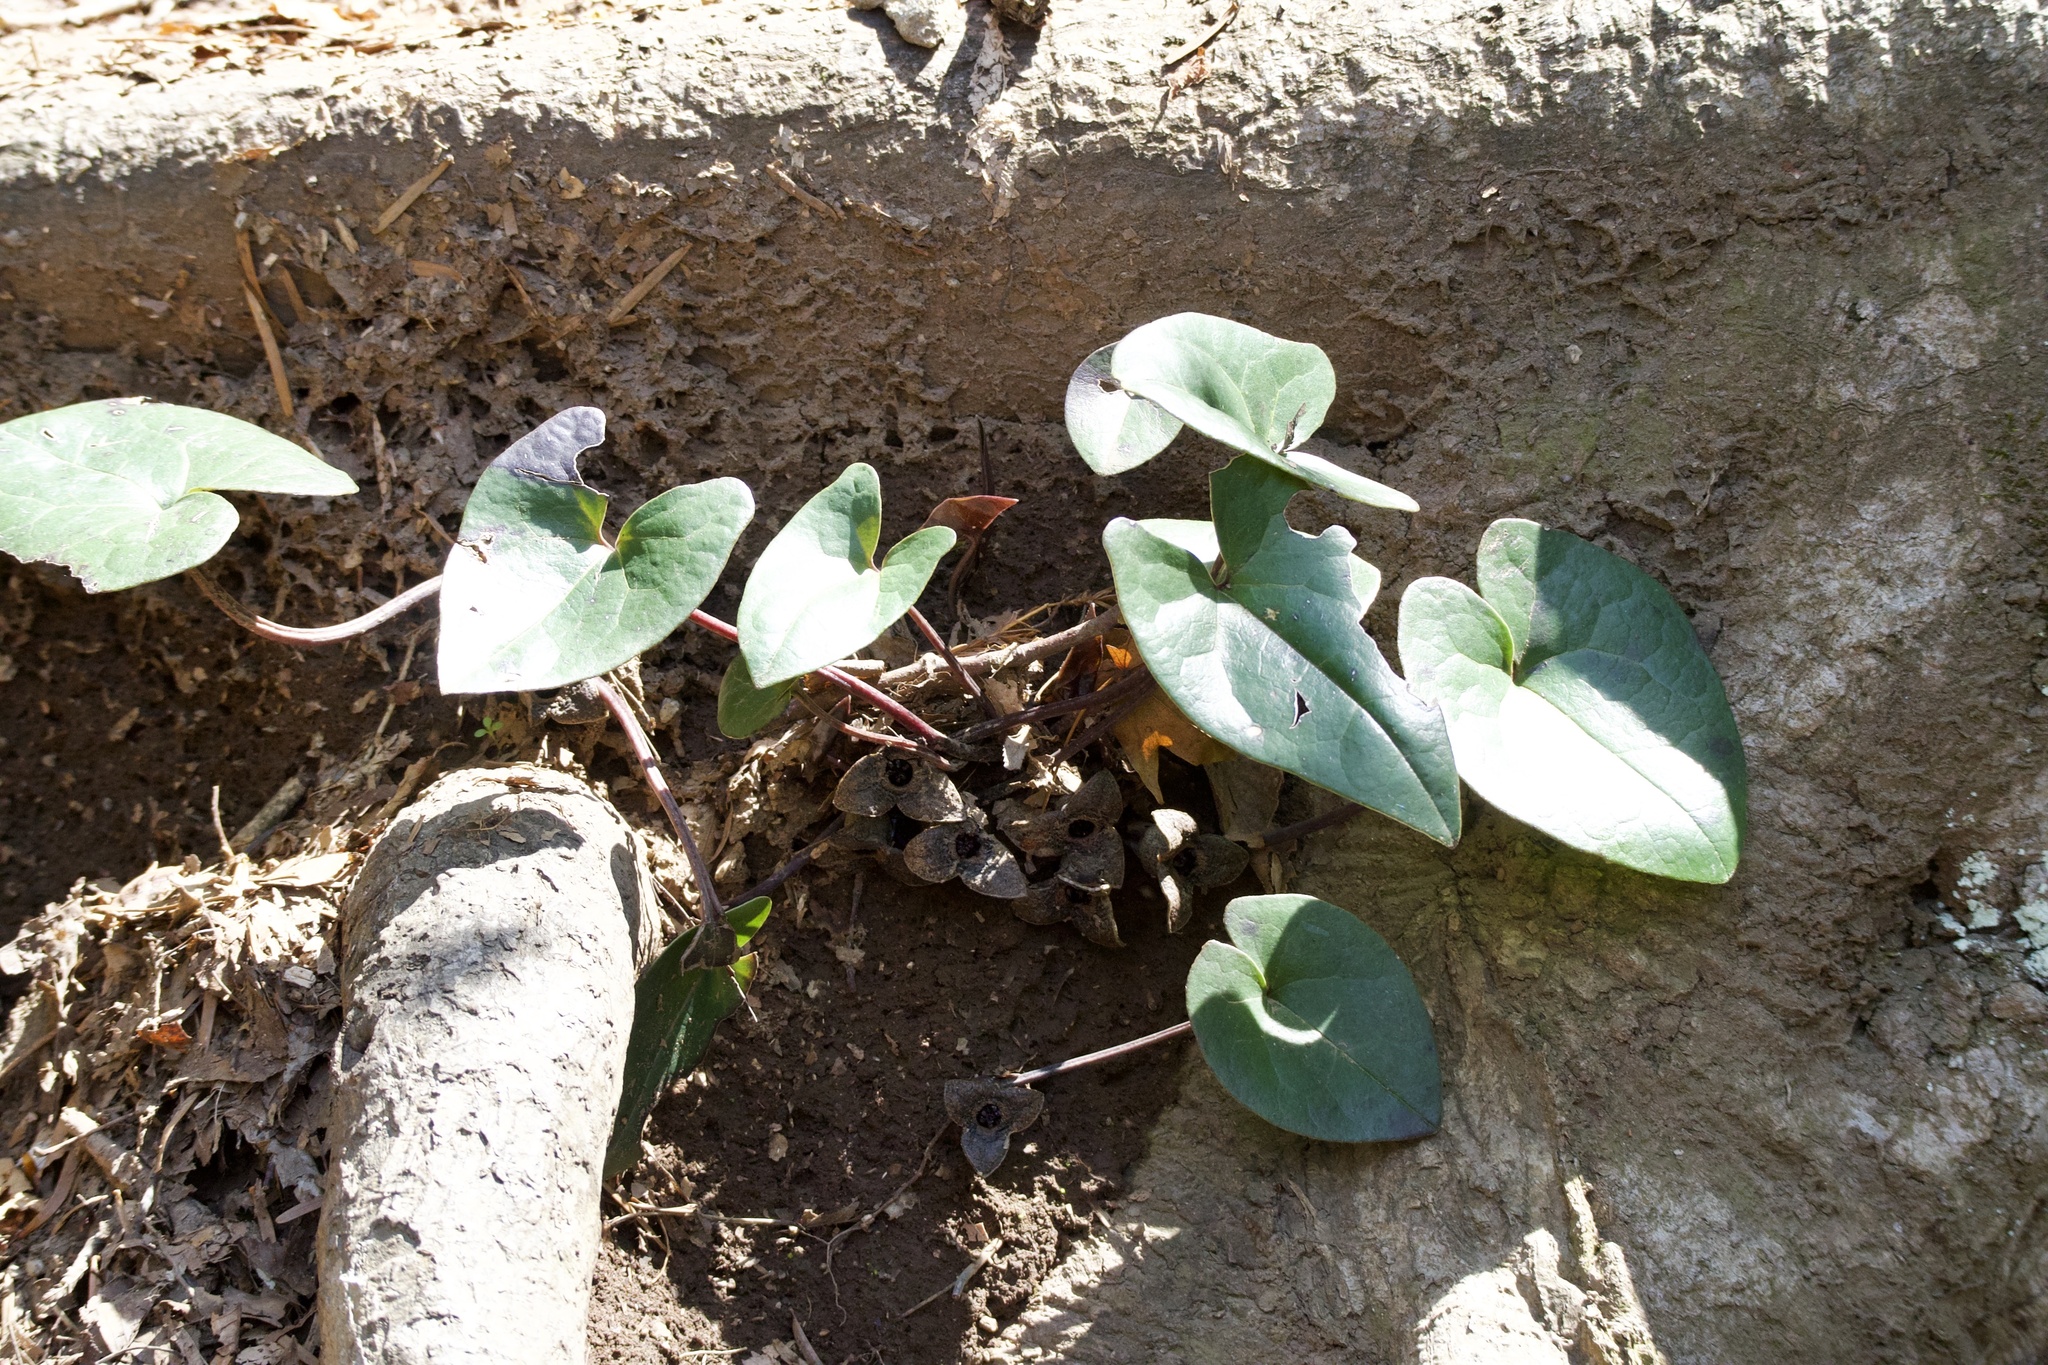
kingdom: Plantae
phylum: Tracheophyta
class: Magnoliopsida
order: Piperales
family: Aristolochiaceae
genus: Asarum
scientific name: Asarum nipponicum
